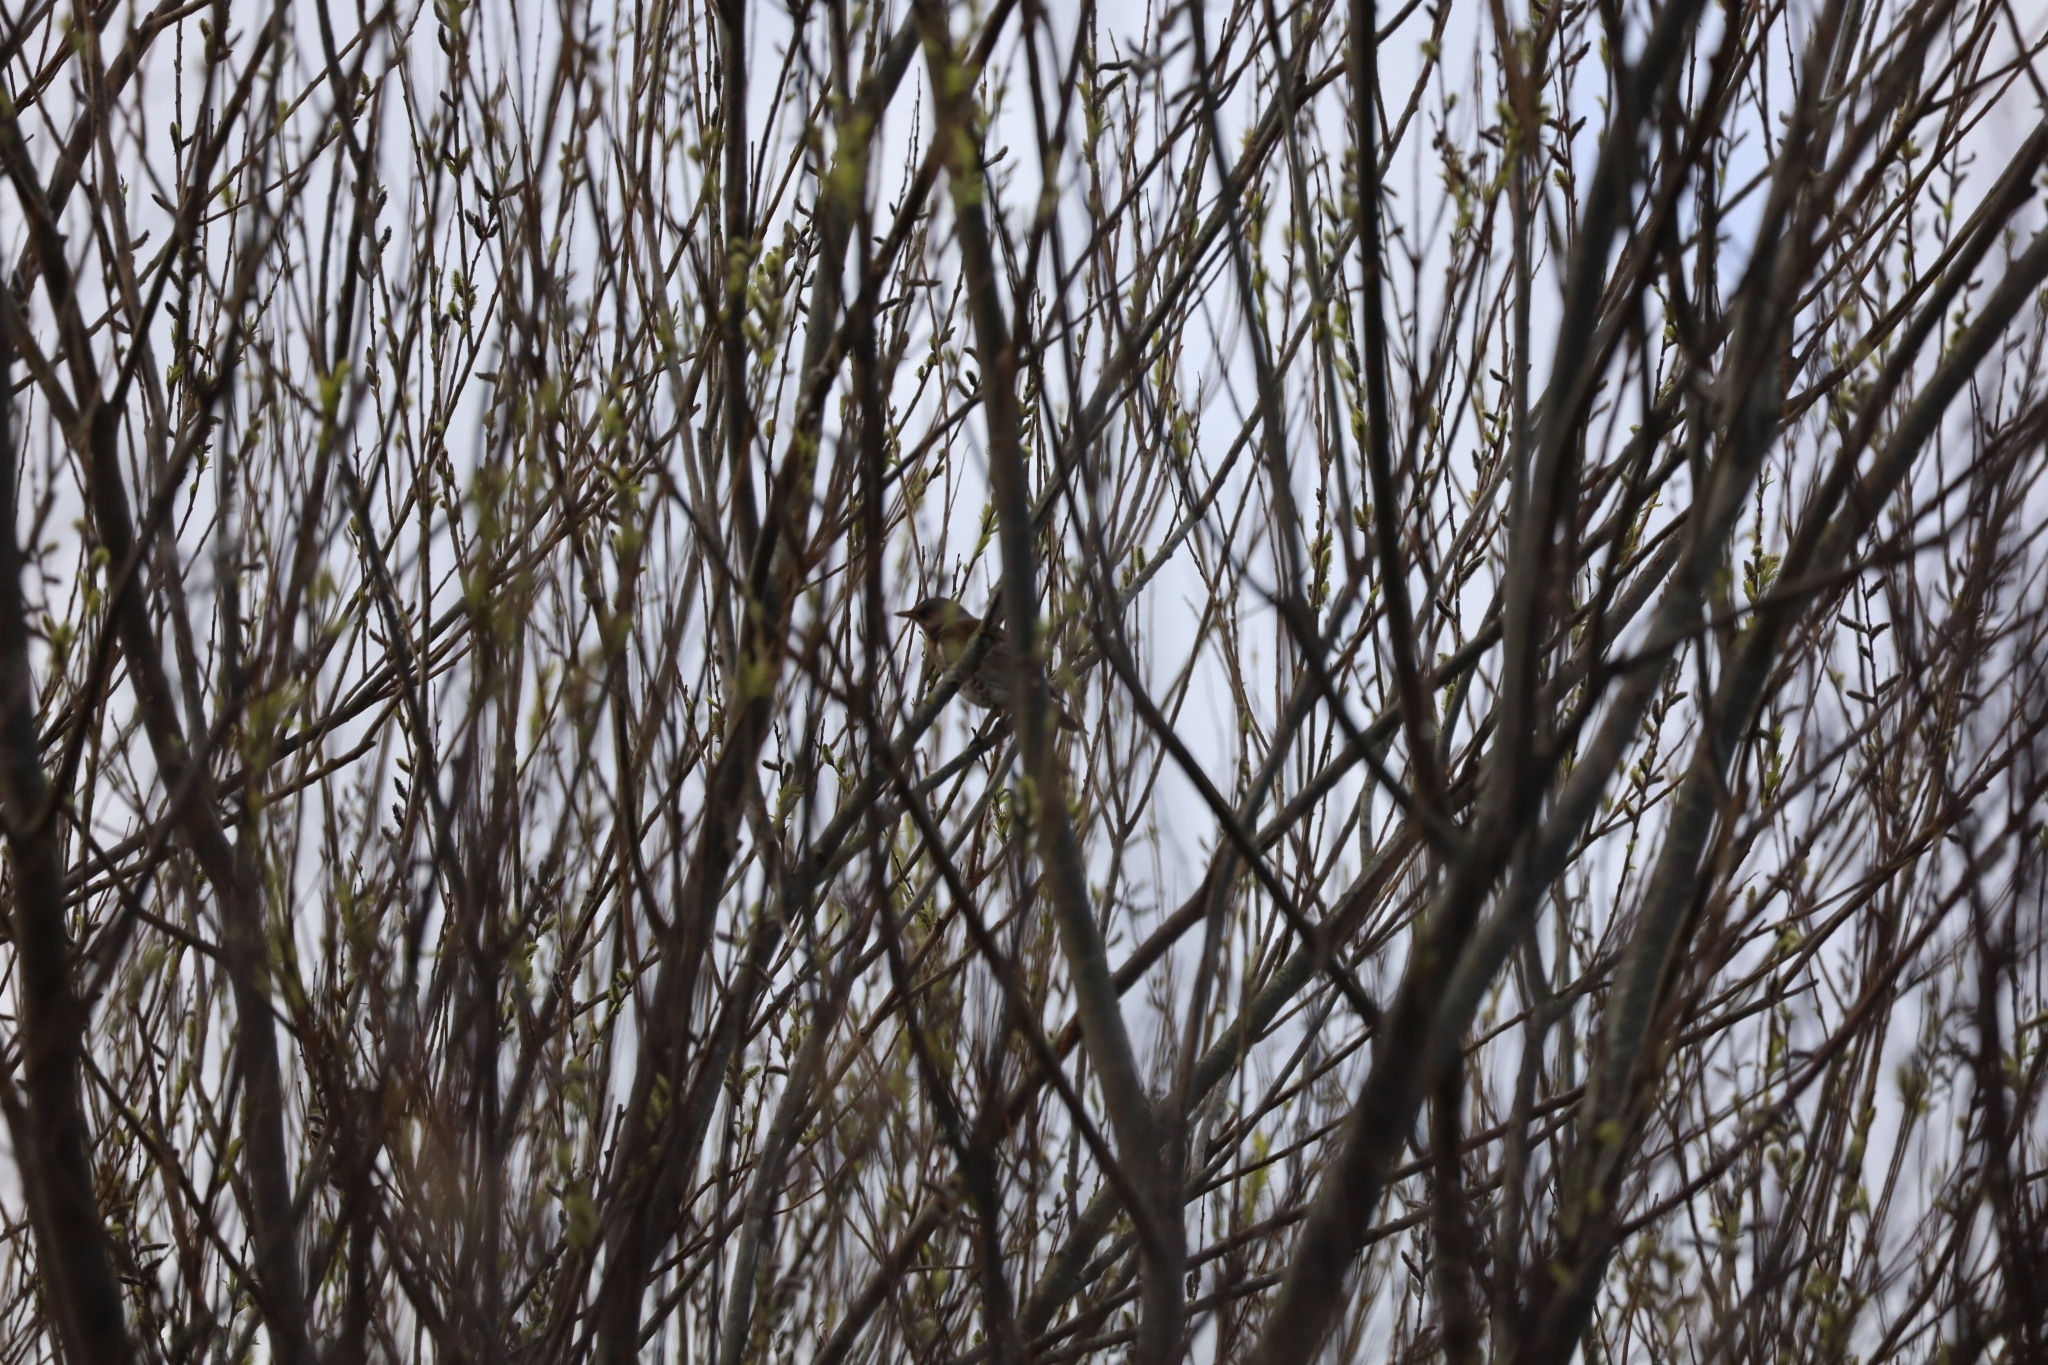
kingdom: Animalia
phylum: Chordata
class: Aves
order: Passeriformes
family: Turdidae
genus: Turdus
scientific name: Turdus pilaris
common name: Fieldfare
